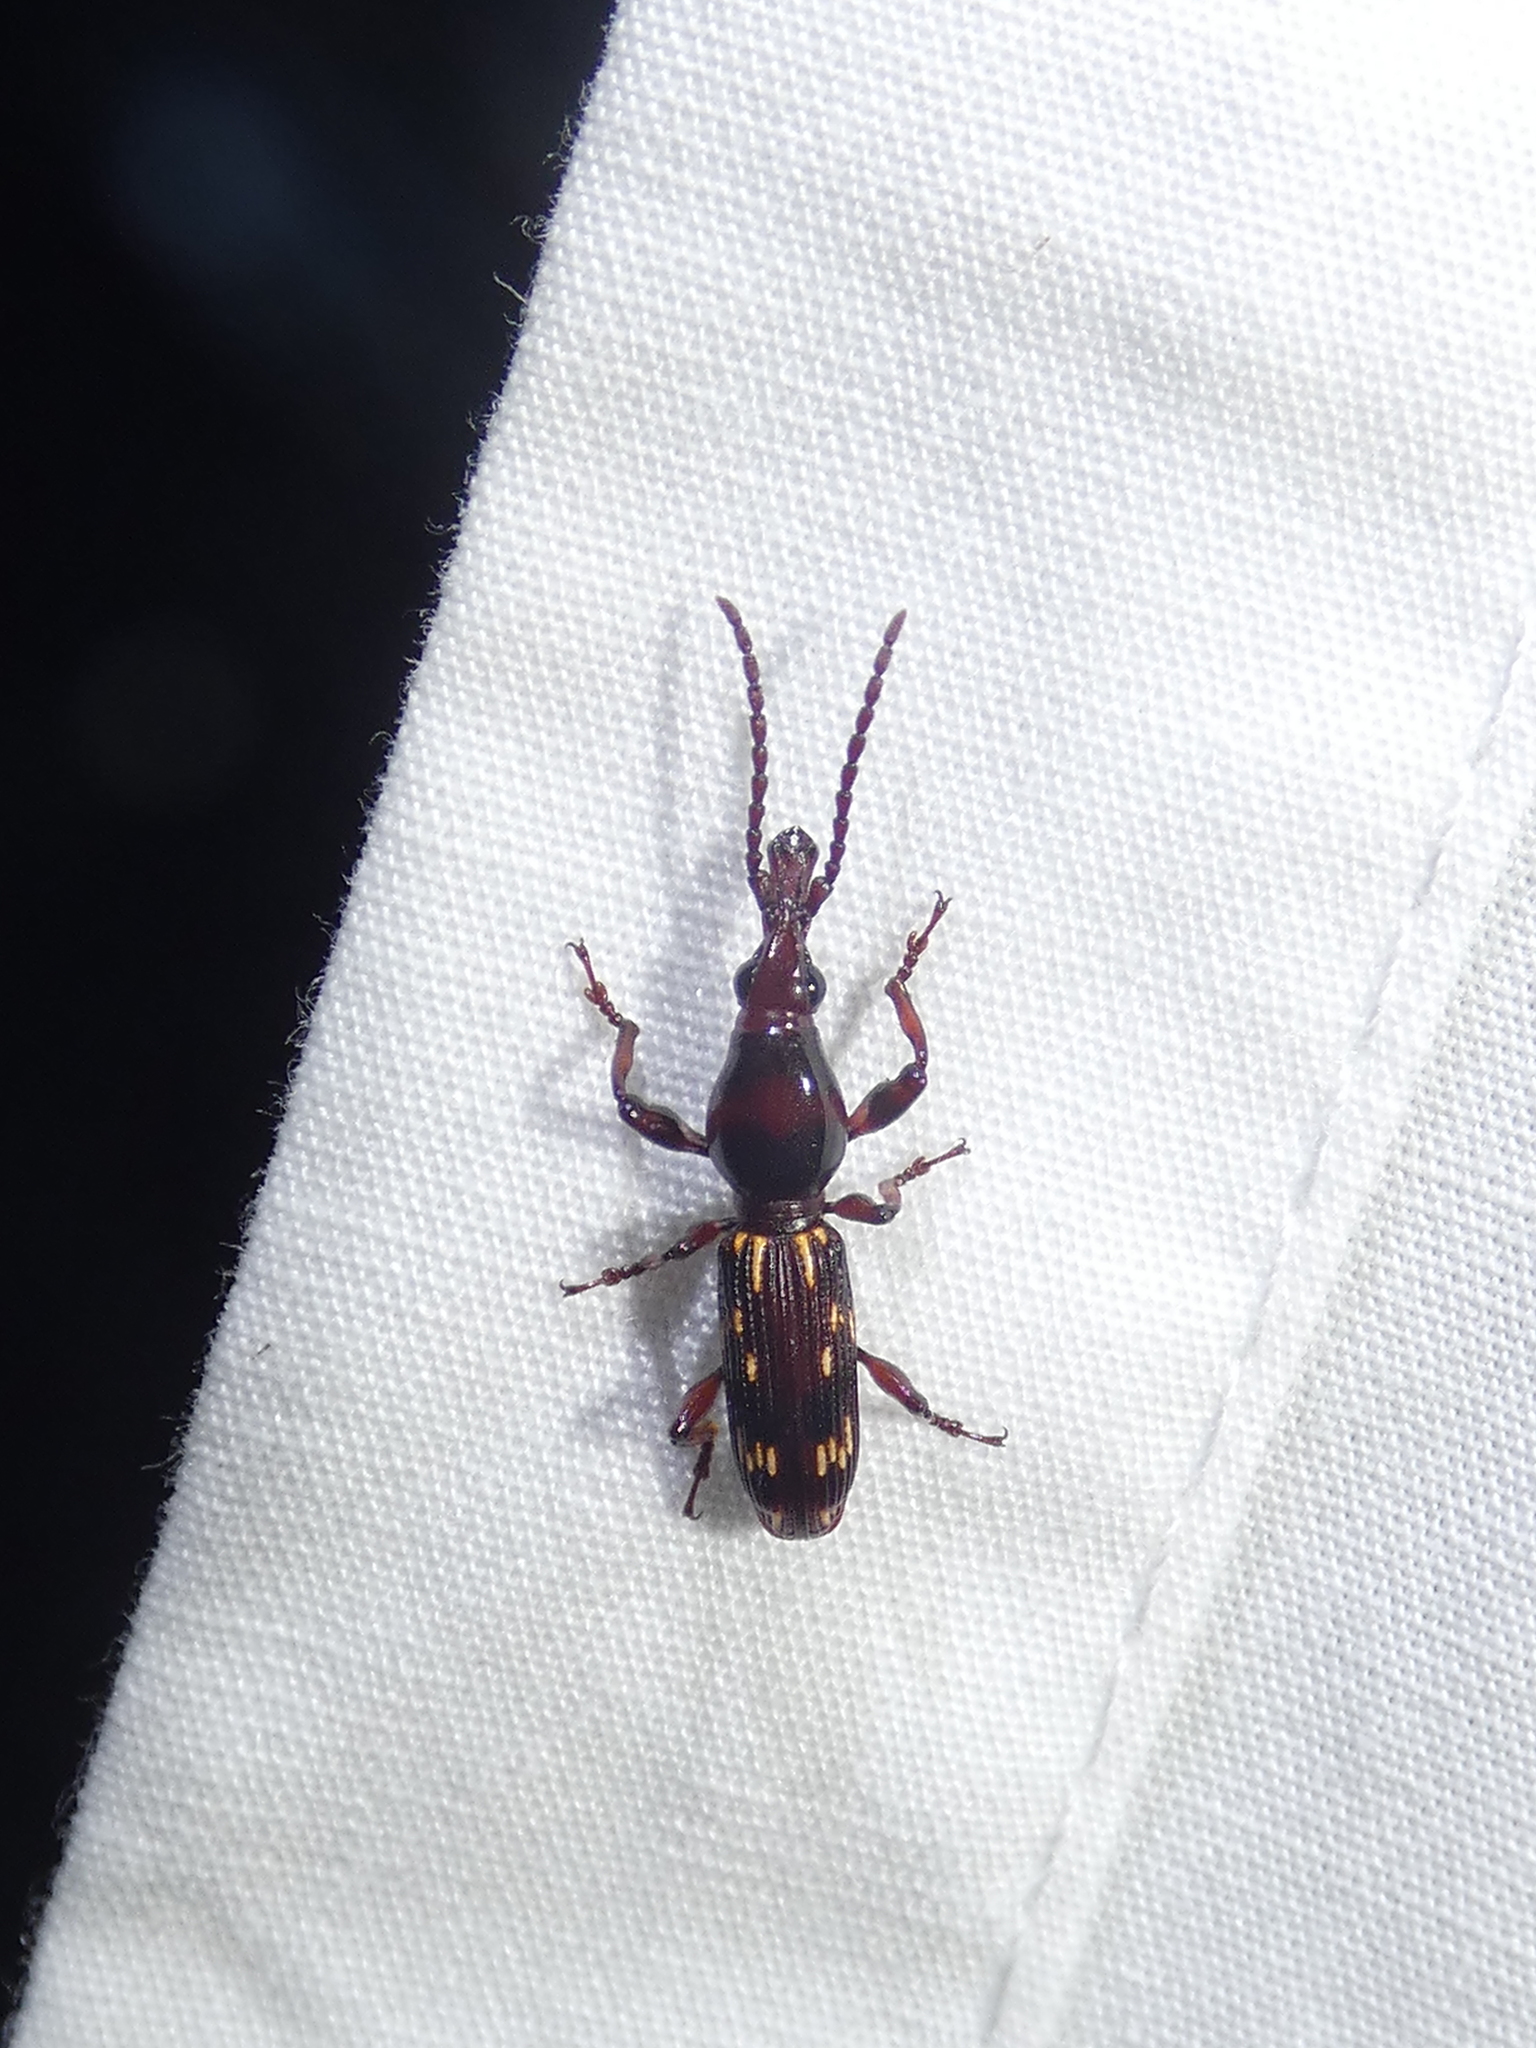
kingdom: Animalia
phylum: Arthropoda
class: Insecta
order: Coleoptera
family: Brentidae
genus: Arrenodes
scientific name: Arrenodes minutus
